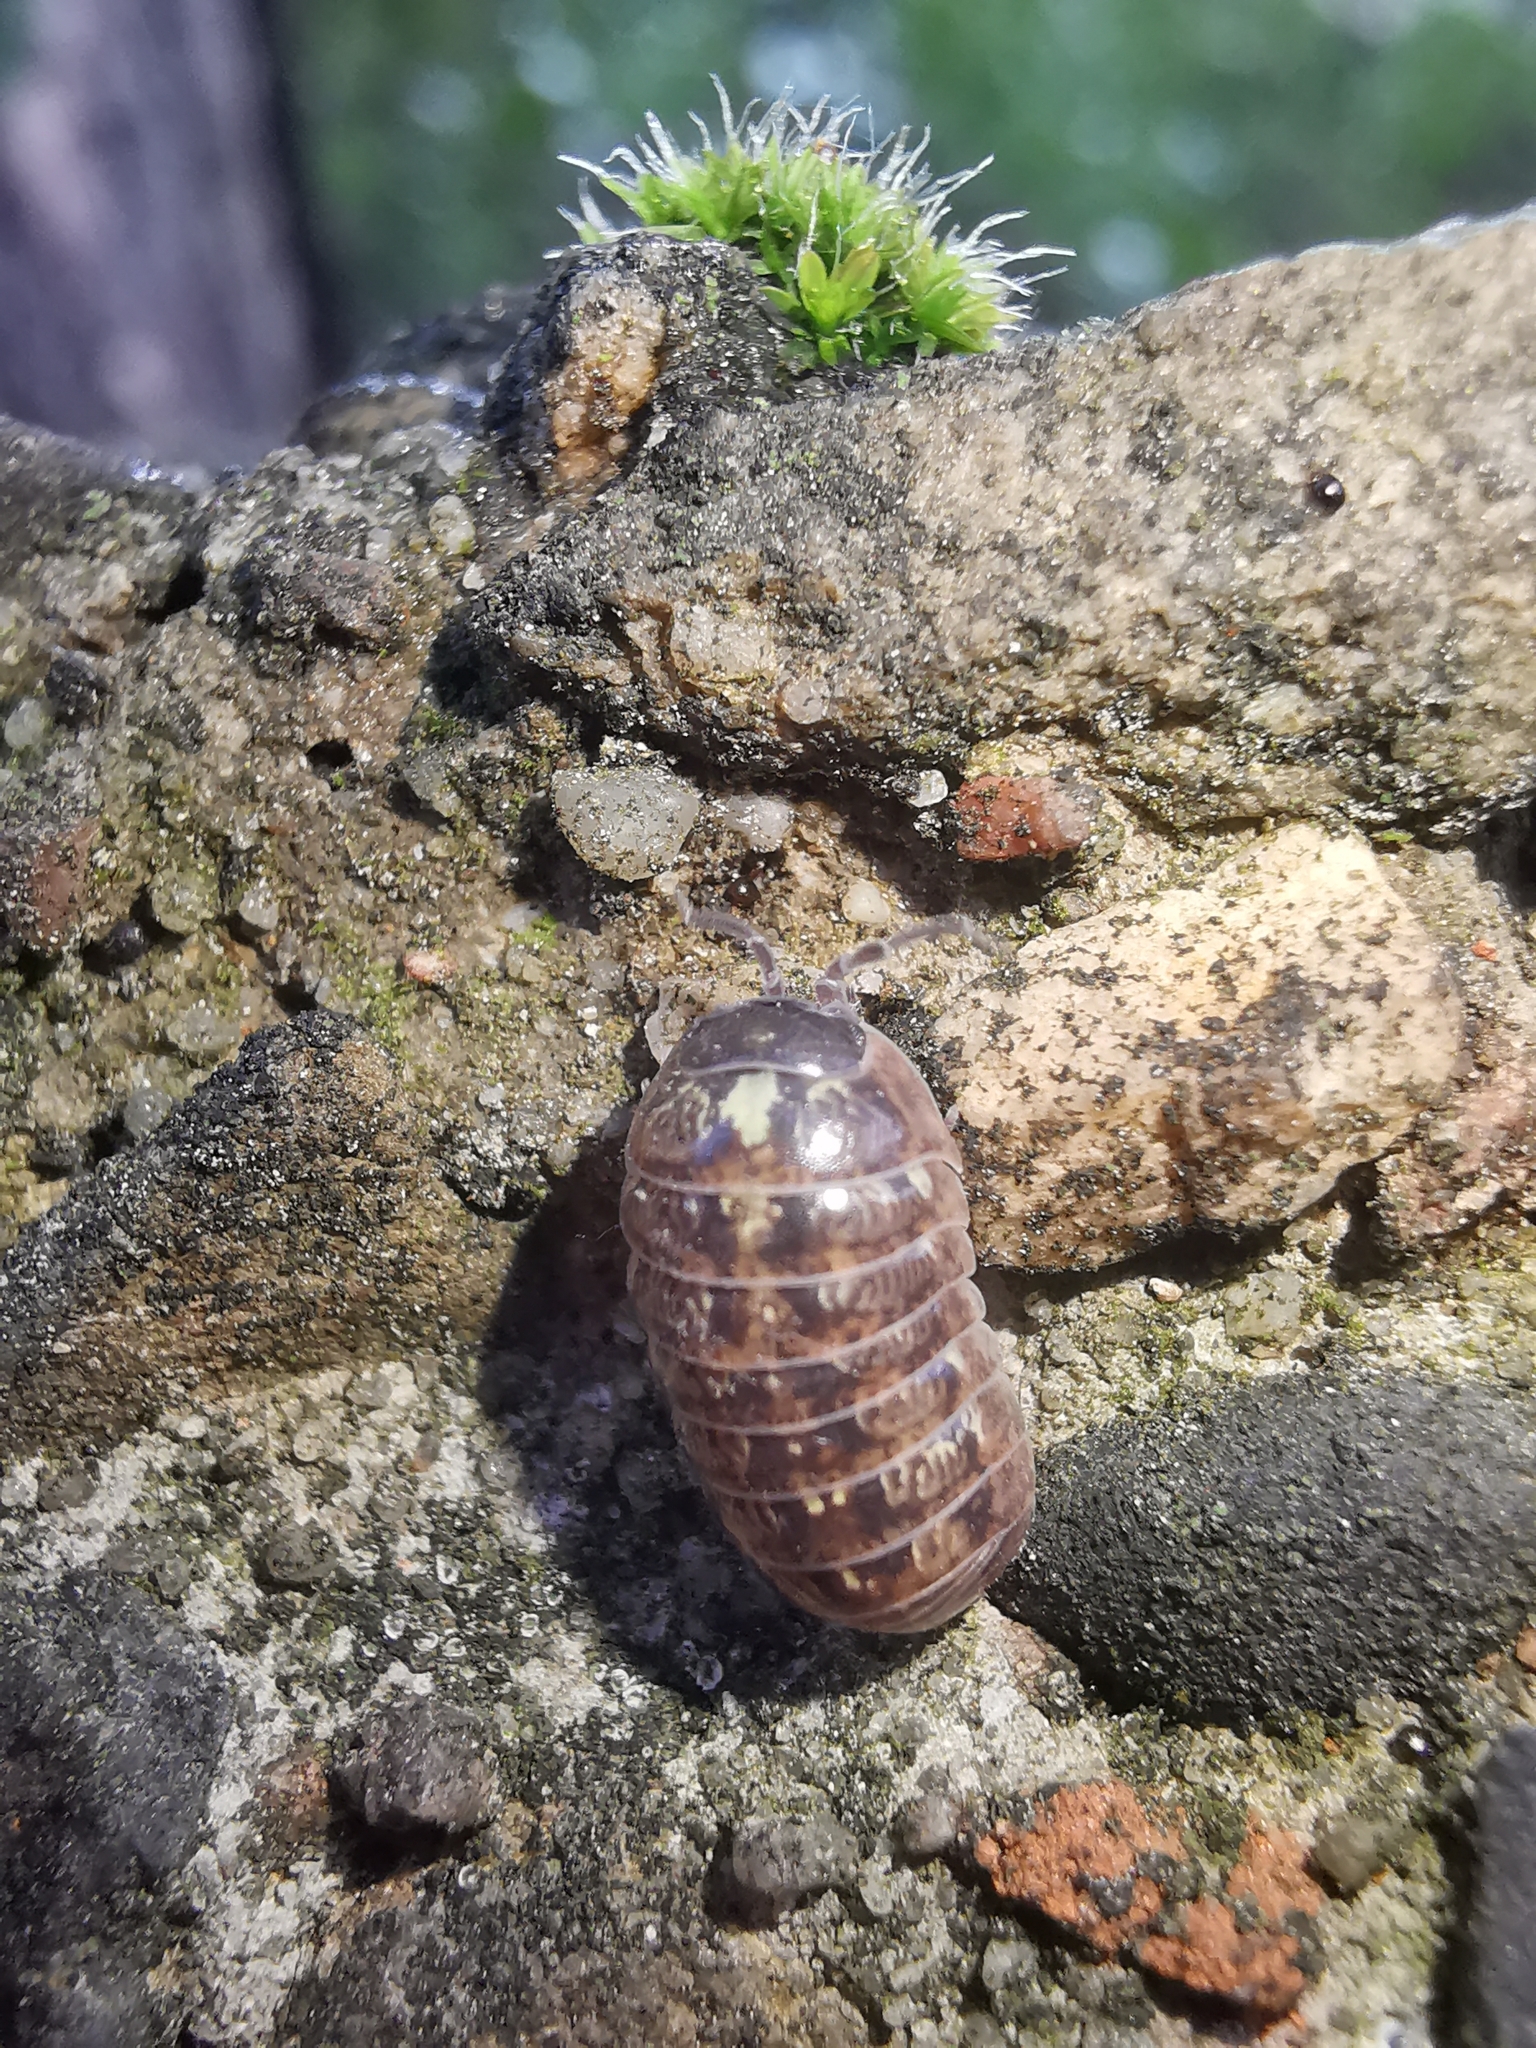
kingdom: Animalia
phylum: Arthropoda
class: Malacostraca
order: Isopoda
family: Armadillidiidae
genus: Armadillidium
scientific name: Armadillidium vulgare
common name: Common pill woodlouse
